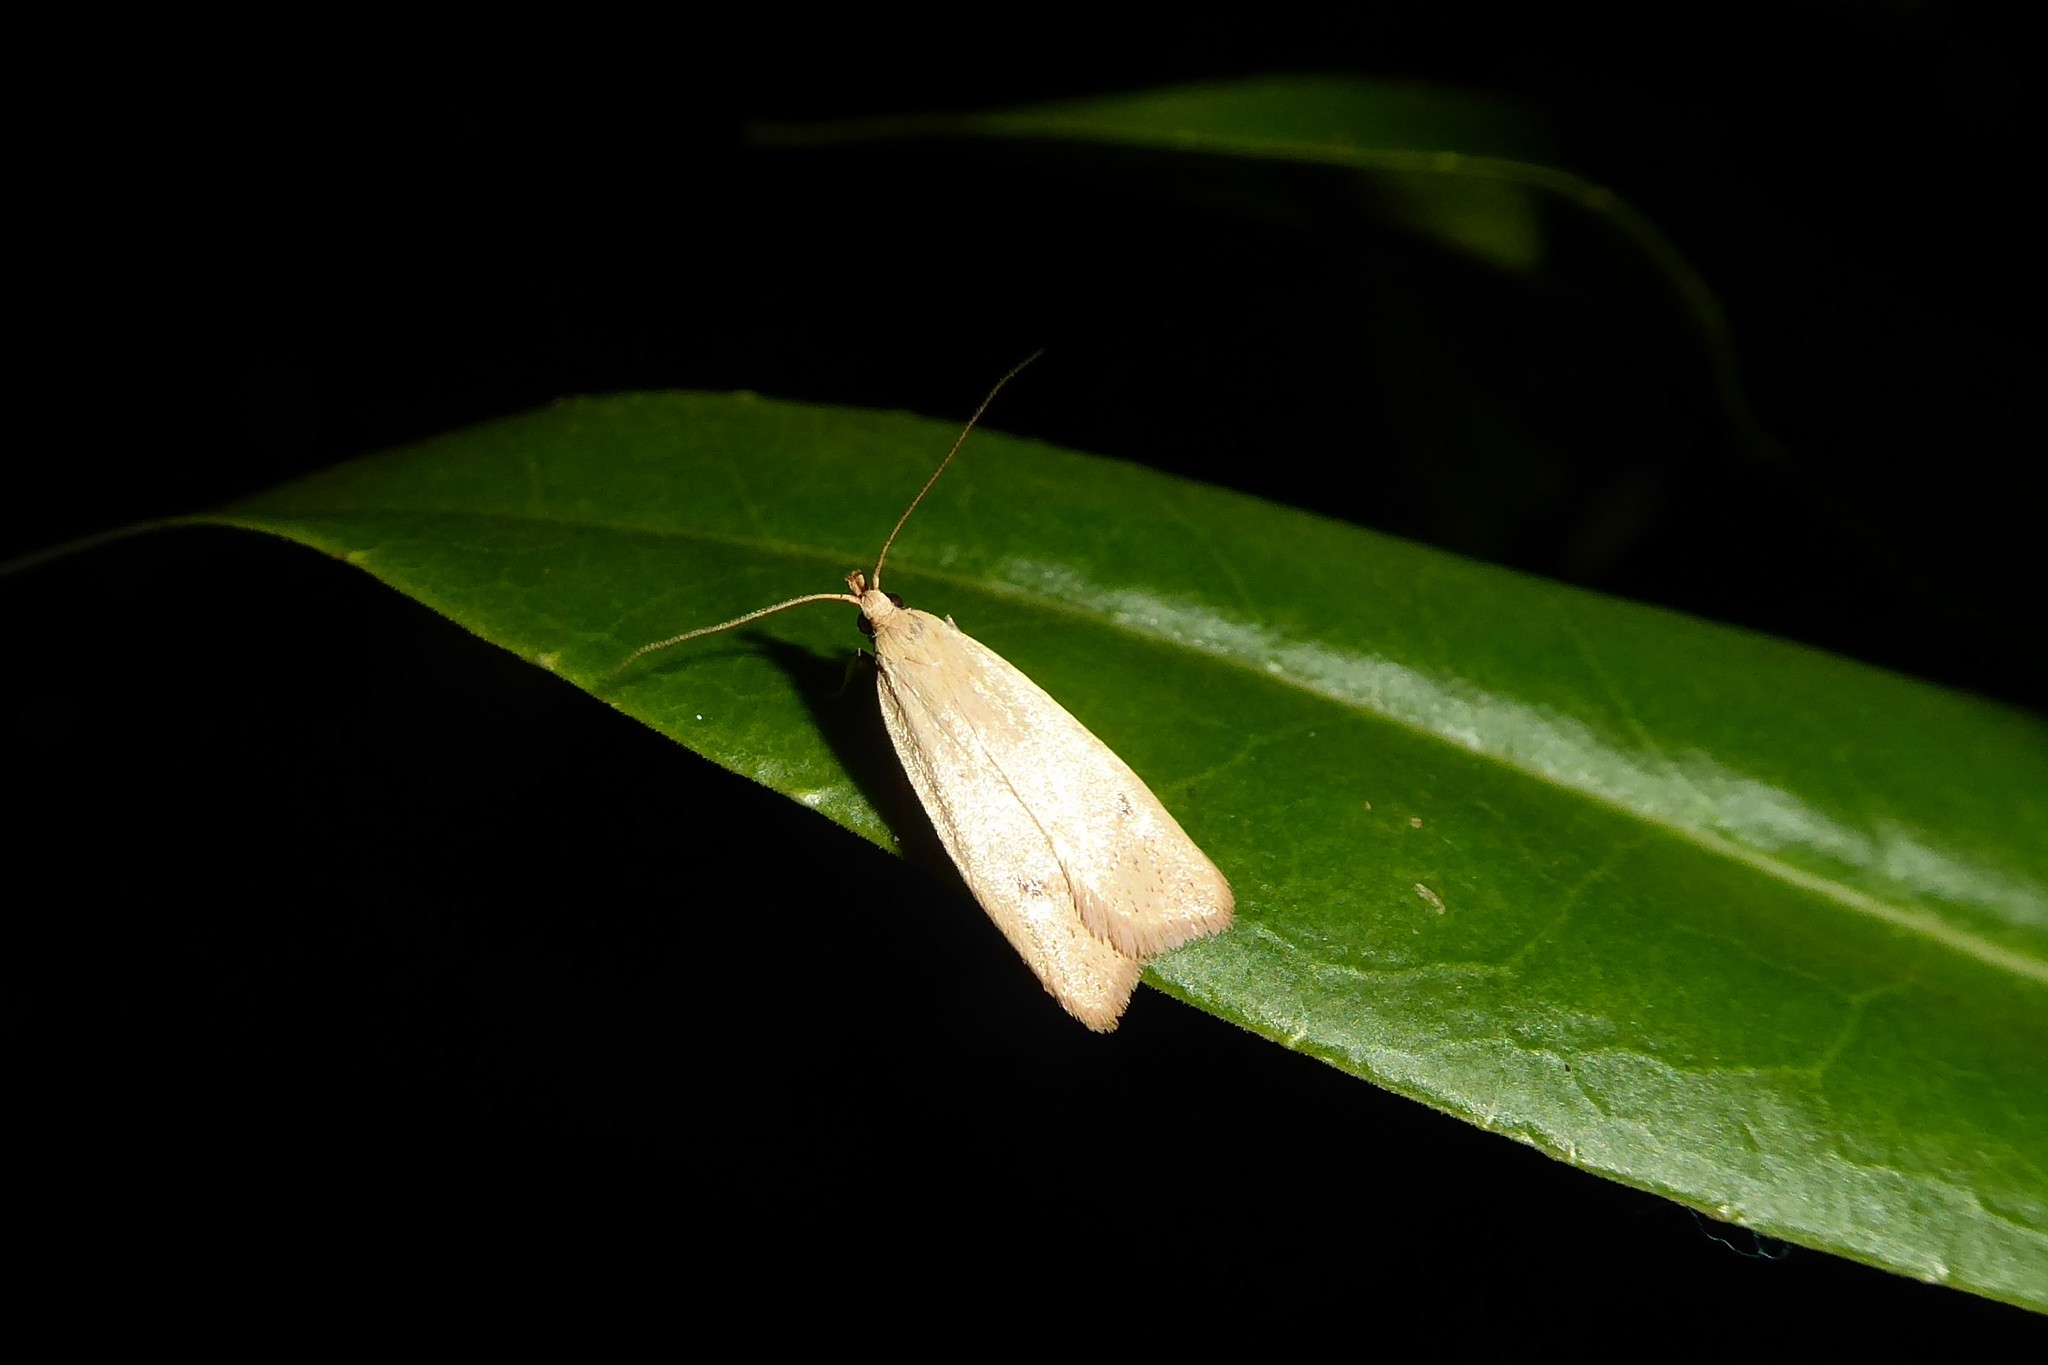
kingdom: Animalia
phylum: Arthropoda
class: Insecta
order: Lepidoptera
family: Oecophoridae
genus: Gymnobathra
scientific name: Gymnobathra sarcoxantha
